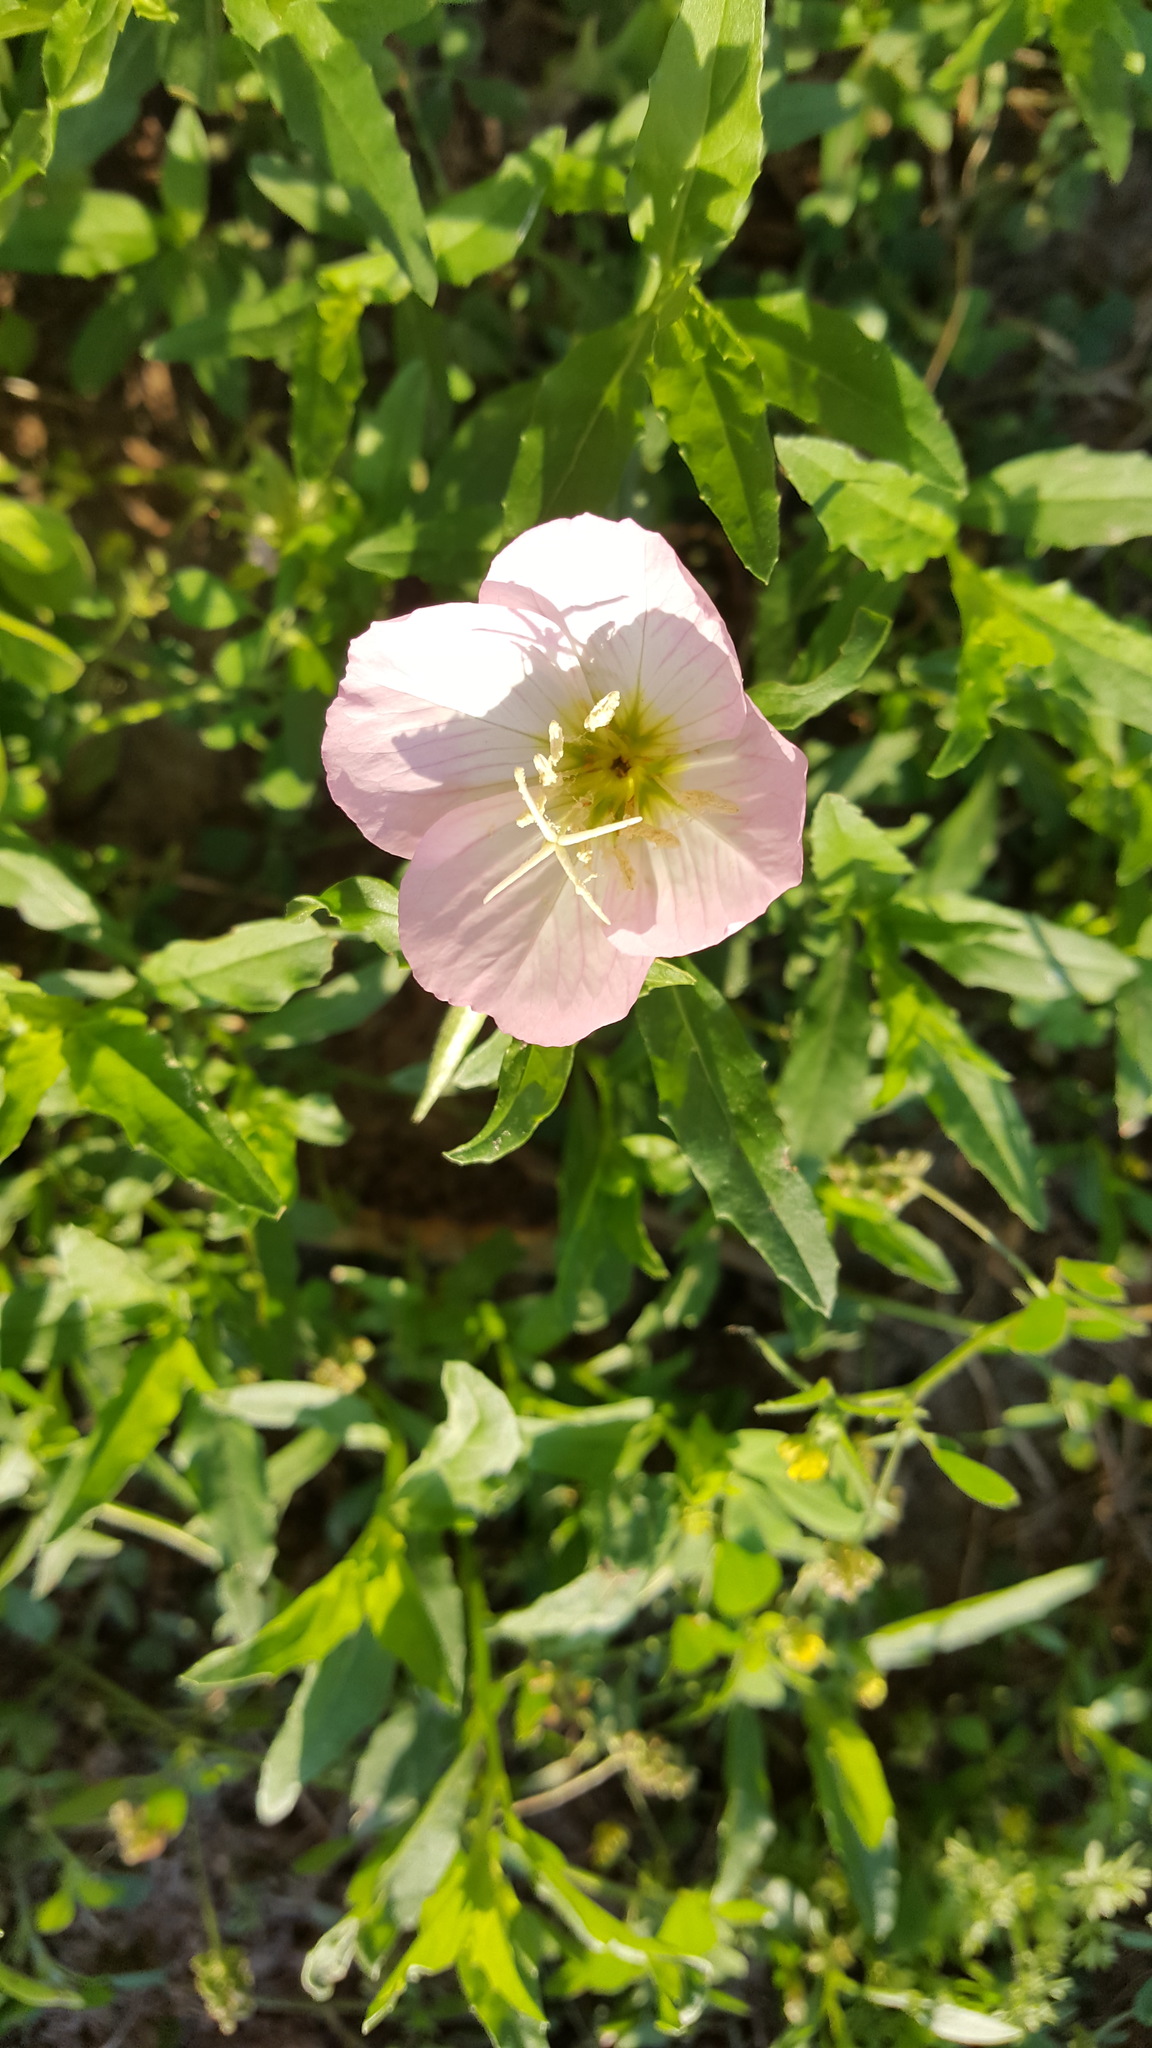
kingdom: Plantae
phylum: Tracheophyta
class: Magnoliopsida
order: Myrtales
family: Onagraceae
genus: Oenothera
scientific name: Oenothera speciosa
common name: White evening-primrose
